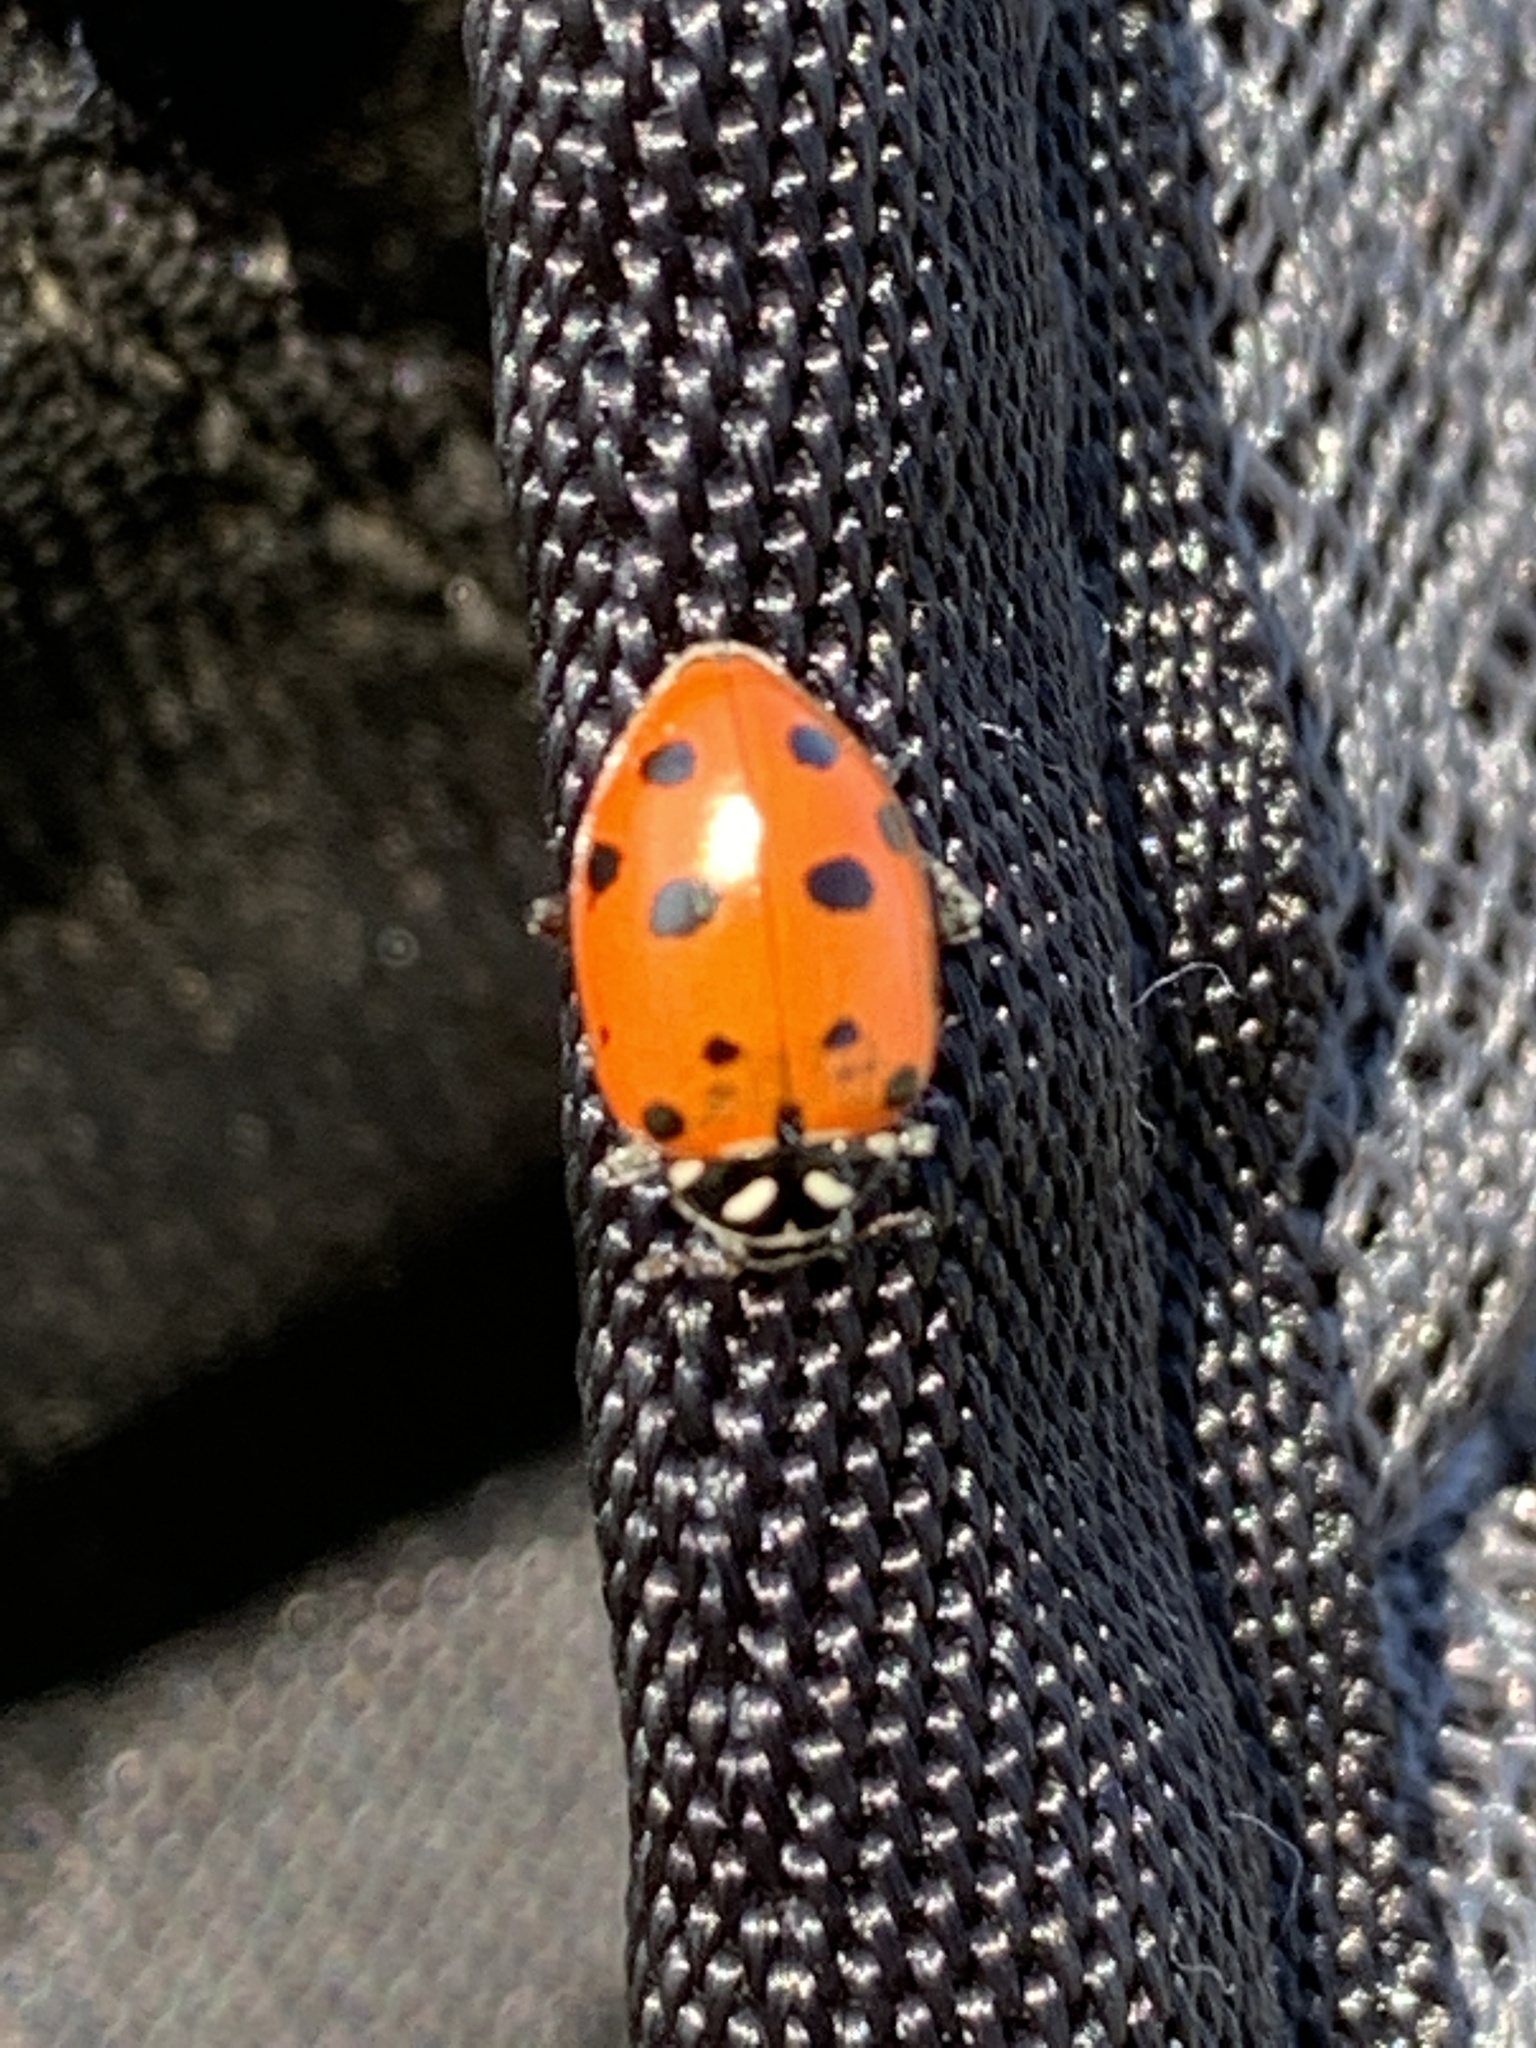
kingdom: Animalia
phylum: Arthropoda
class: Insecta
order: Coleoptera
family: Coccinellidae
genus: Hippodamia
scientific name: Hippodamia convergens
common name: Convergent lady beetle
